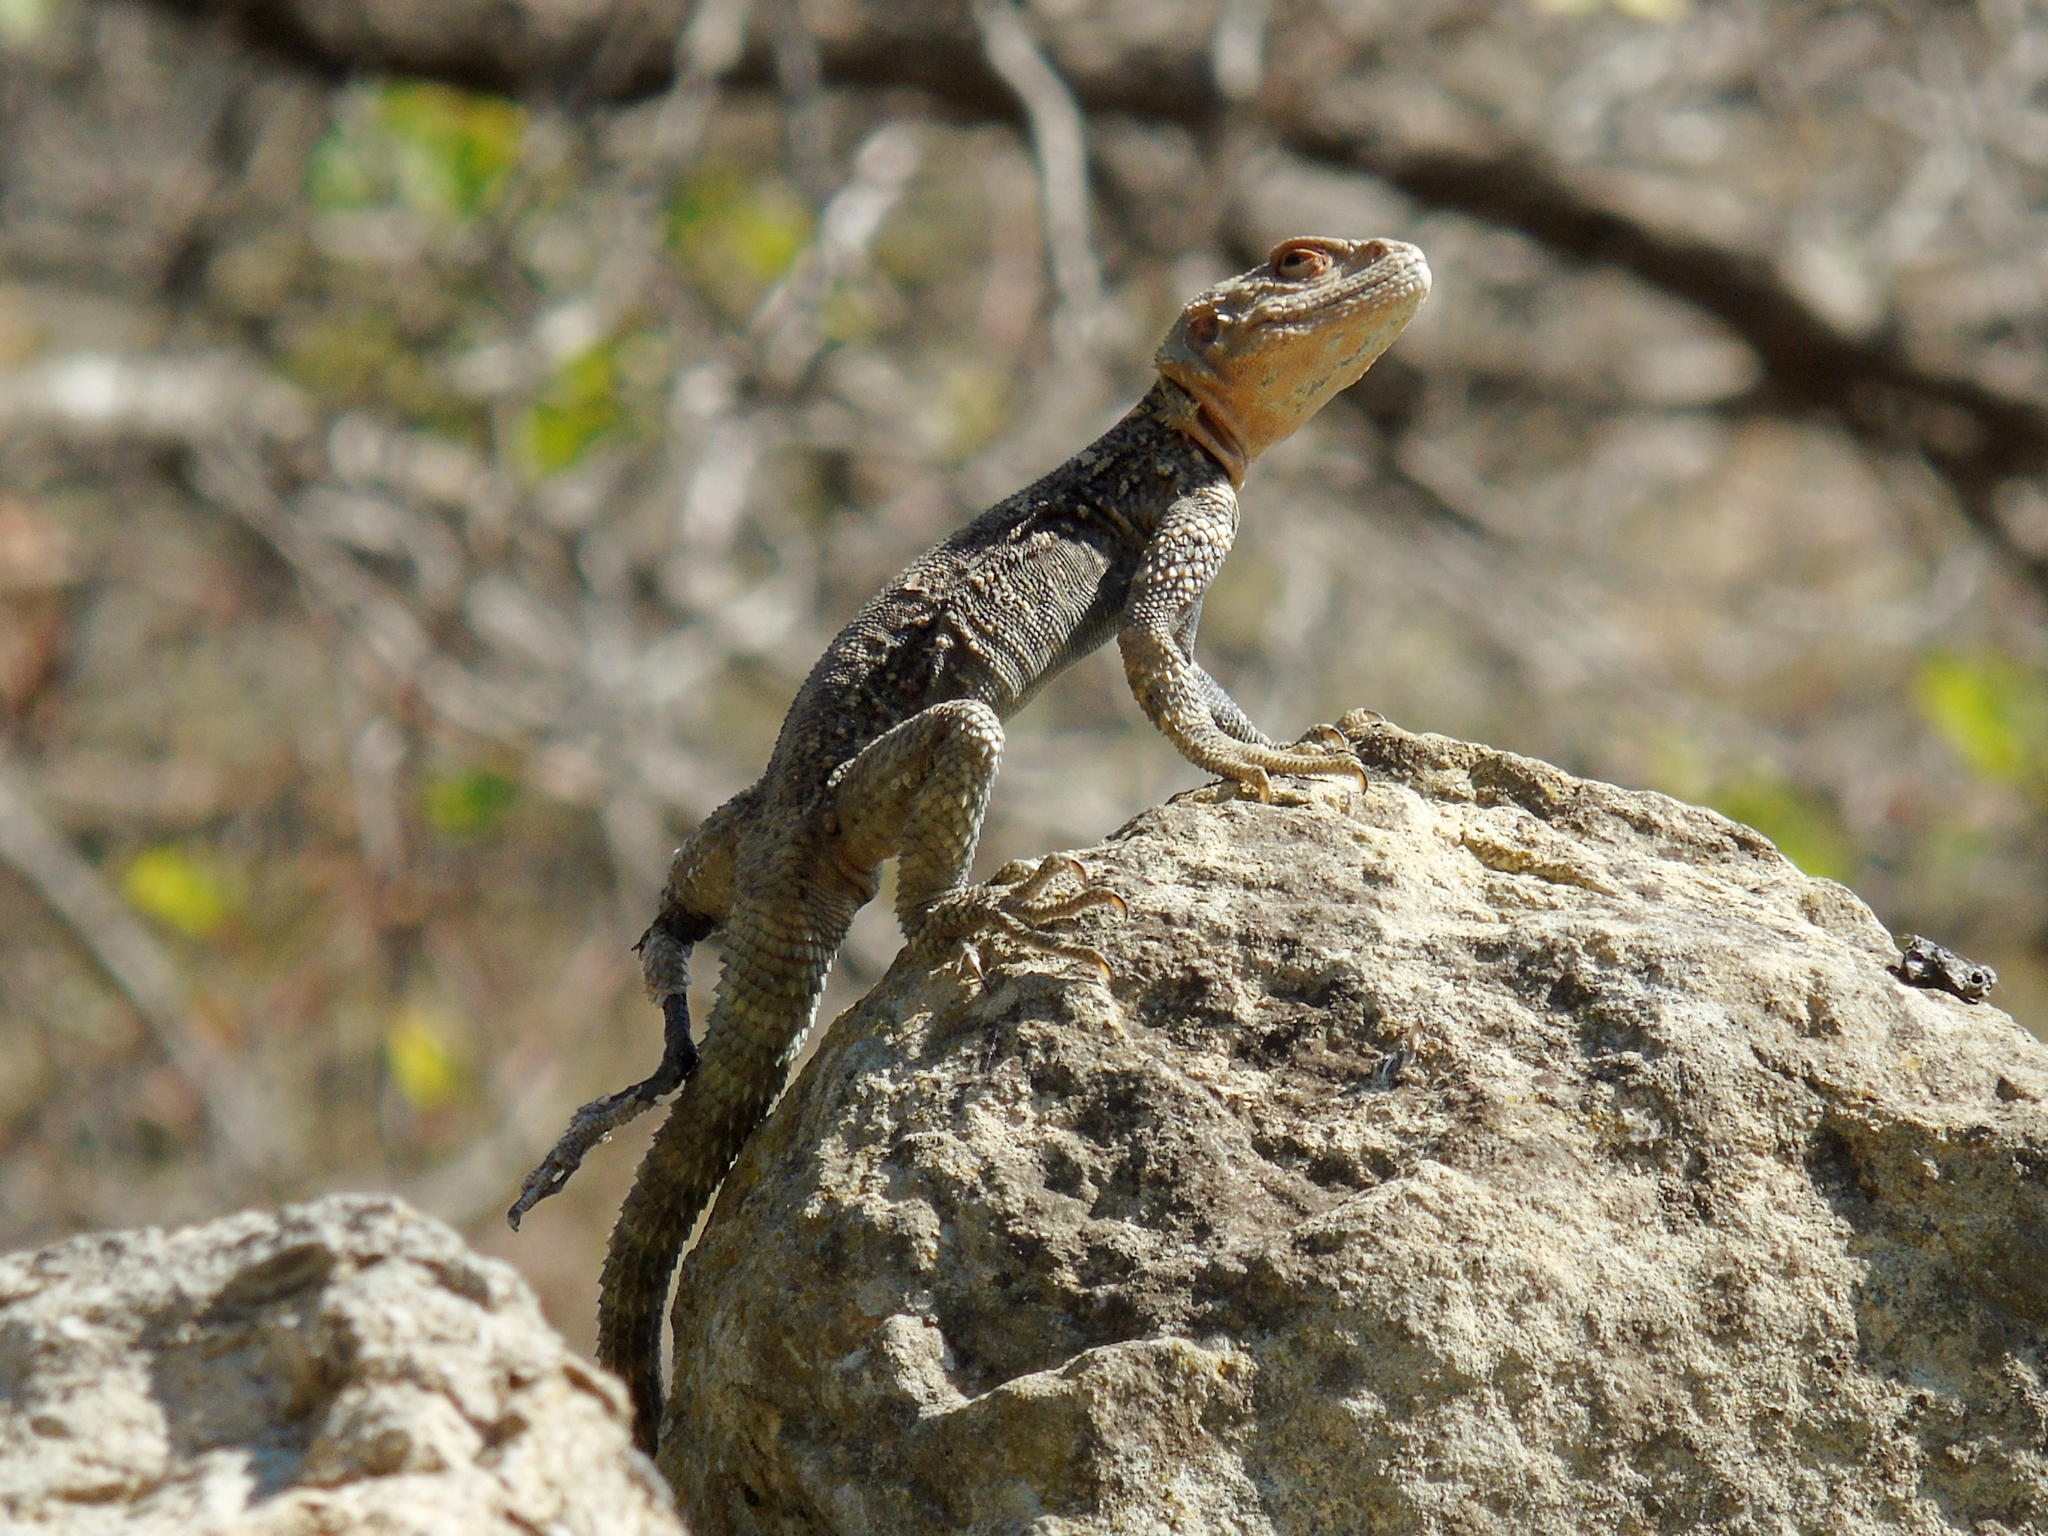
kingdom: Animalia
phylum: Chordata
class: Squamata
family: Agamidae
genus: Paralaudakia
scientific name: Paralaudakia caucasia
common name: Caucasian agama
